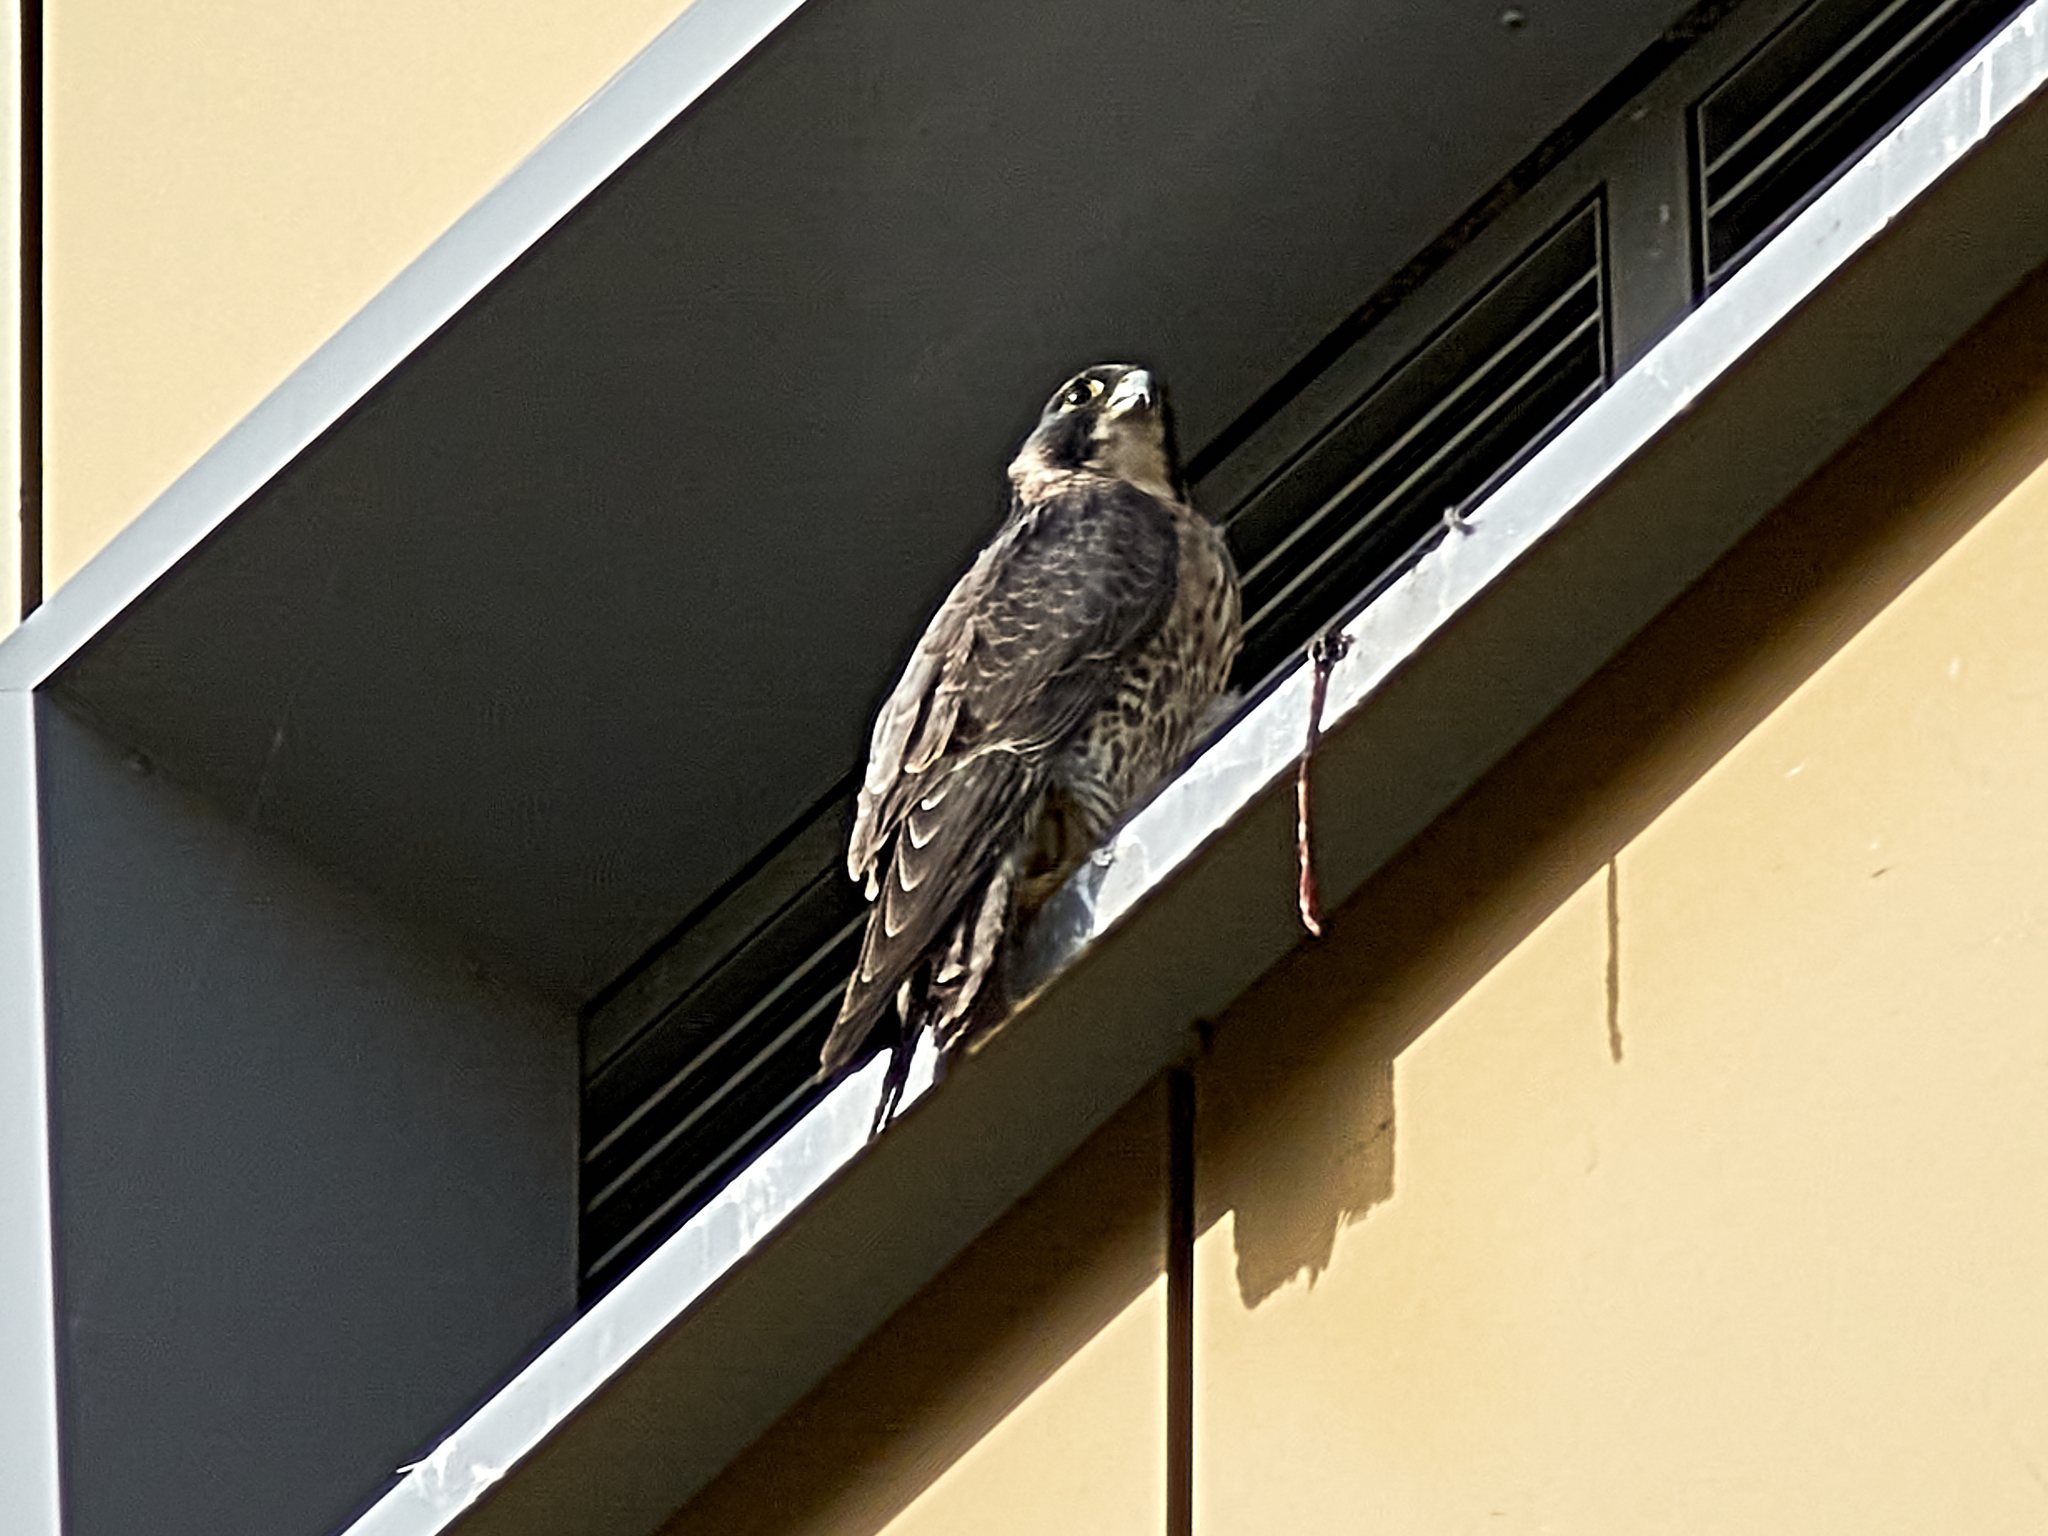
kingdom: Animalia
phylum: Chordata
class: Aves
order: Falconiformes
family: Falconidae
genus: Falco
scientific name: Falco peregrinus
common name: Peregrine falcon
